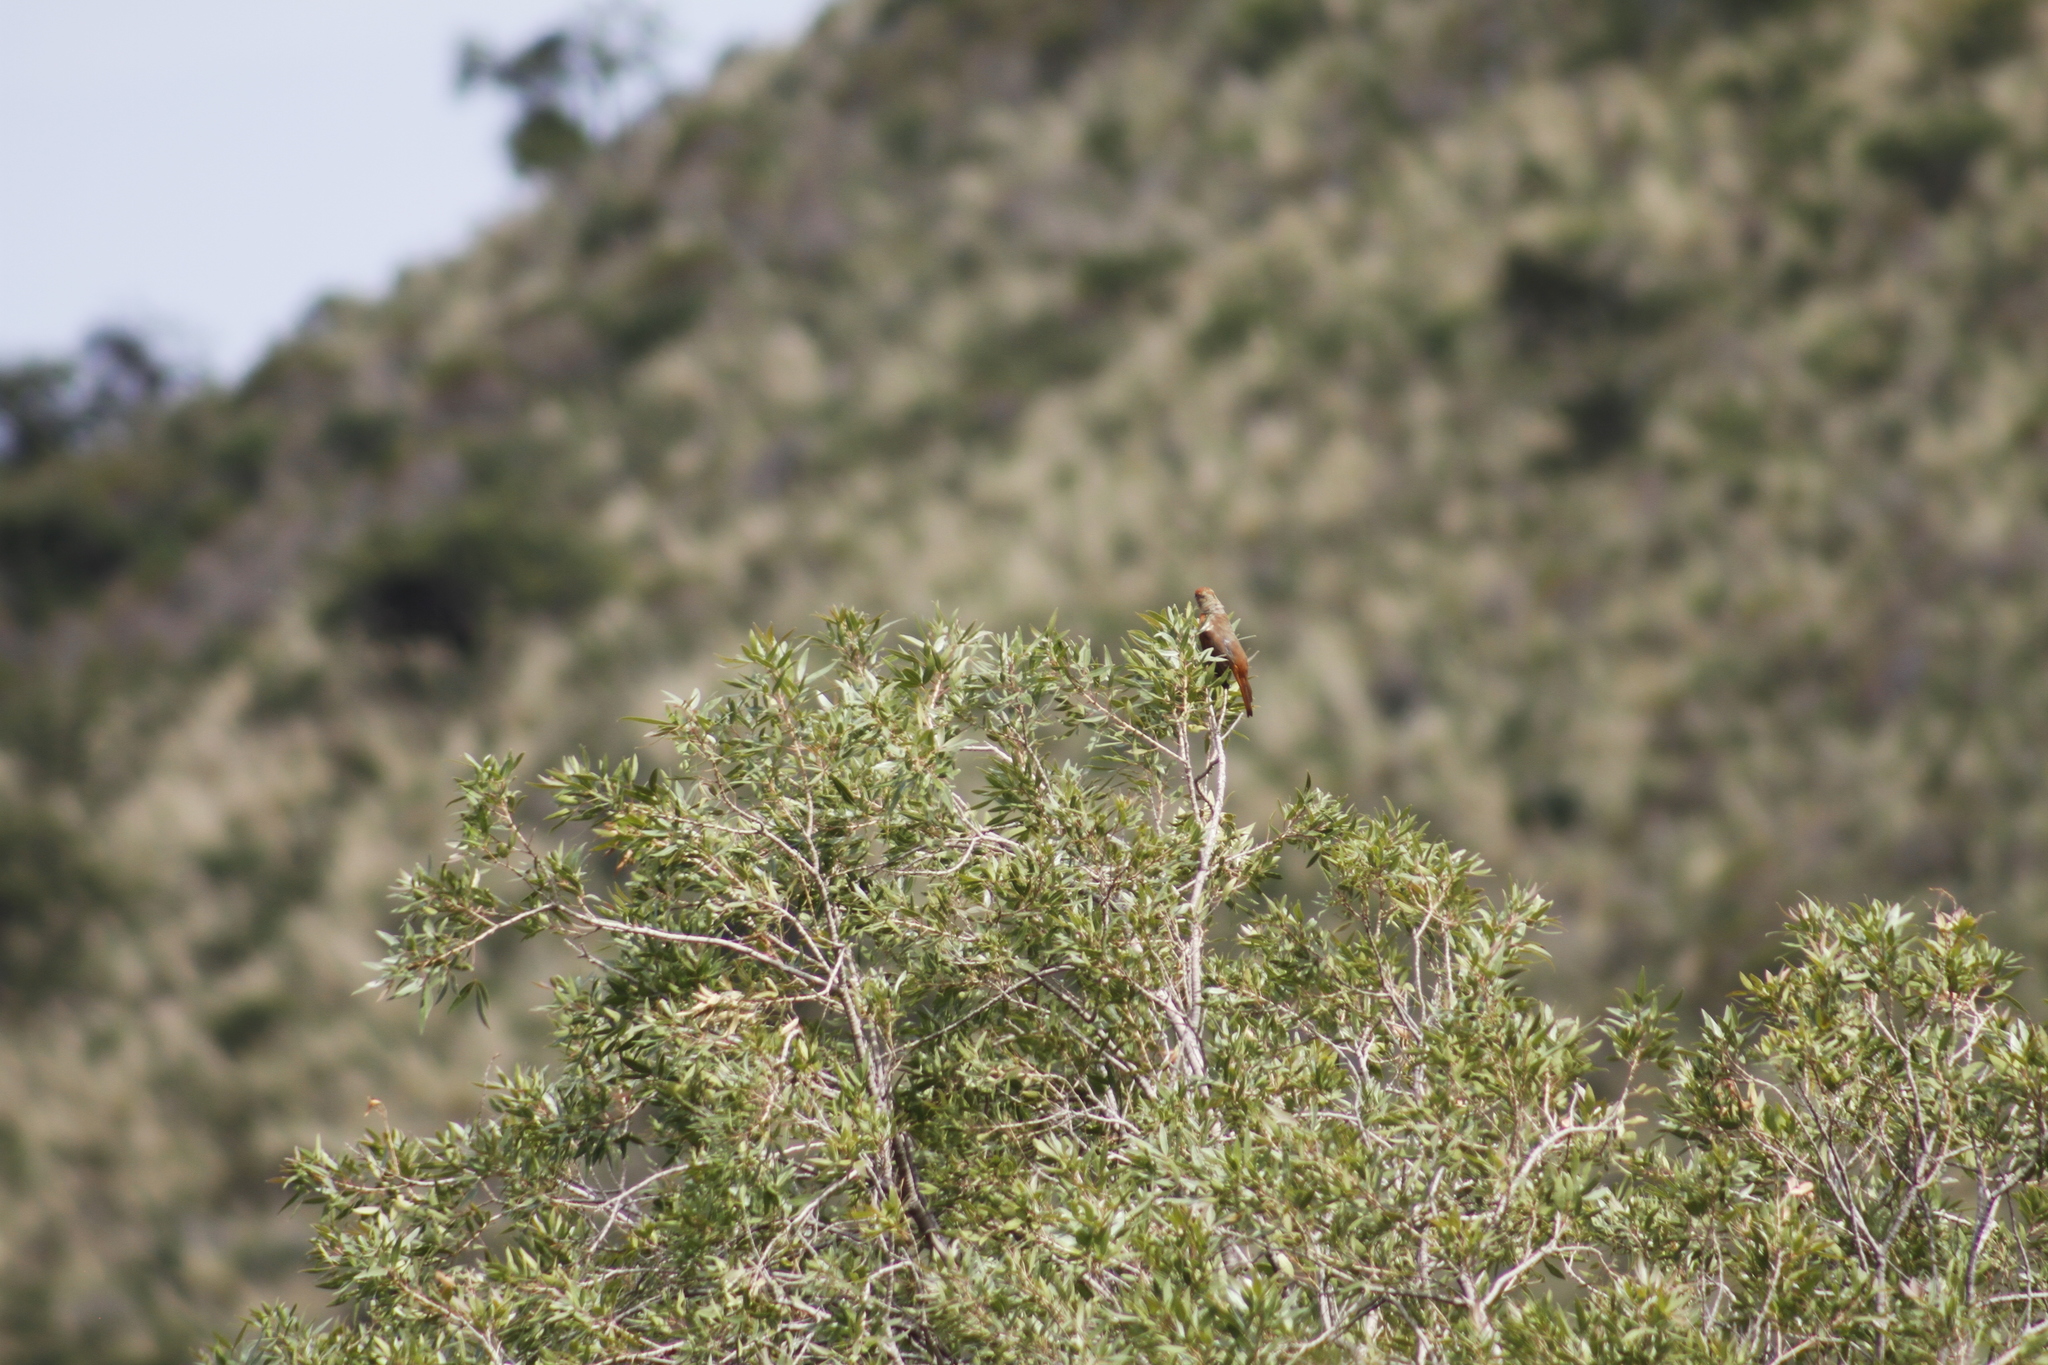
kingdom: Animalia
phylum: Chordata
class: Aves
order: Passeriformes
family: Cardinalidae
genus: Piranga
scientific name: Piranga flava
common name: Red tanager
